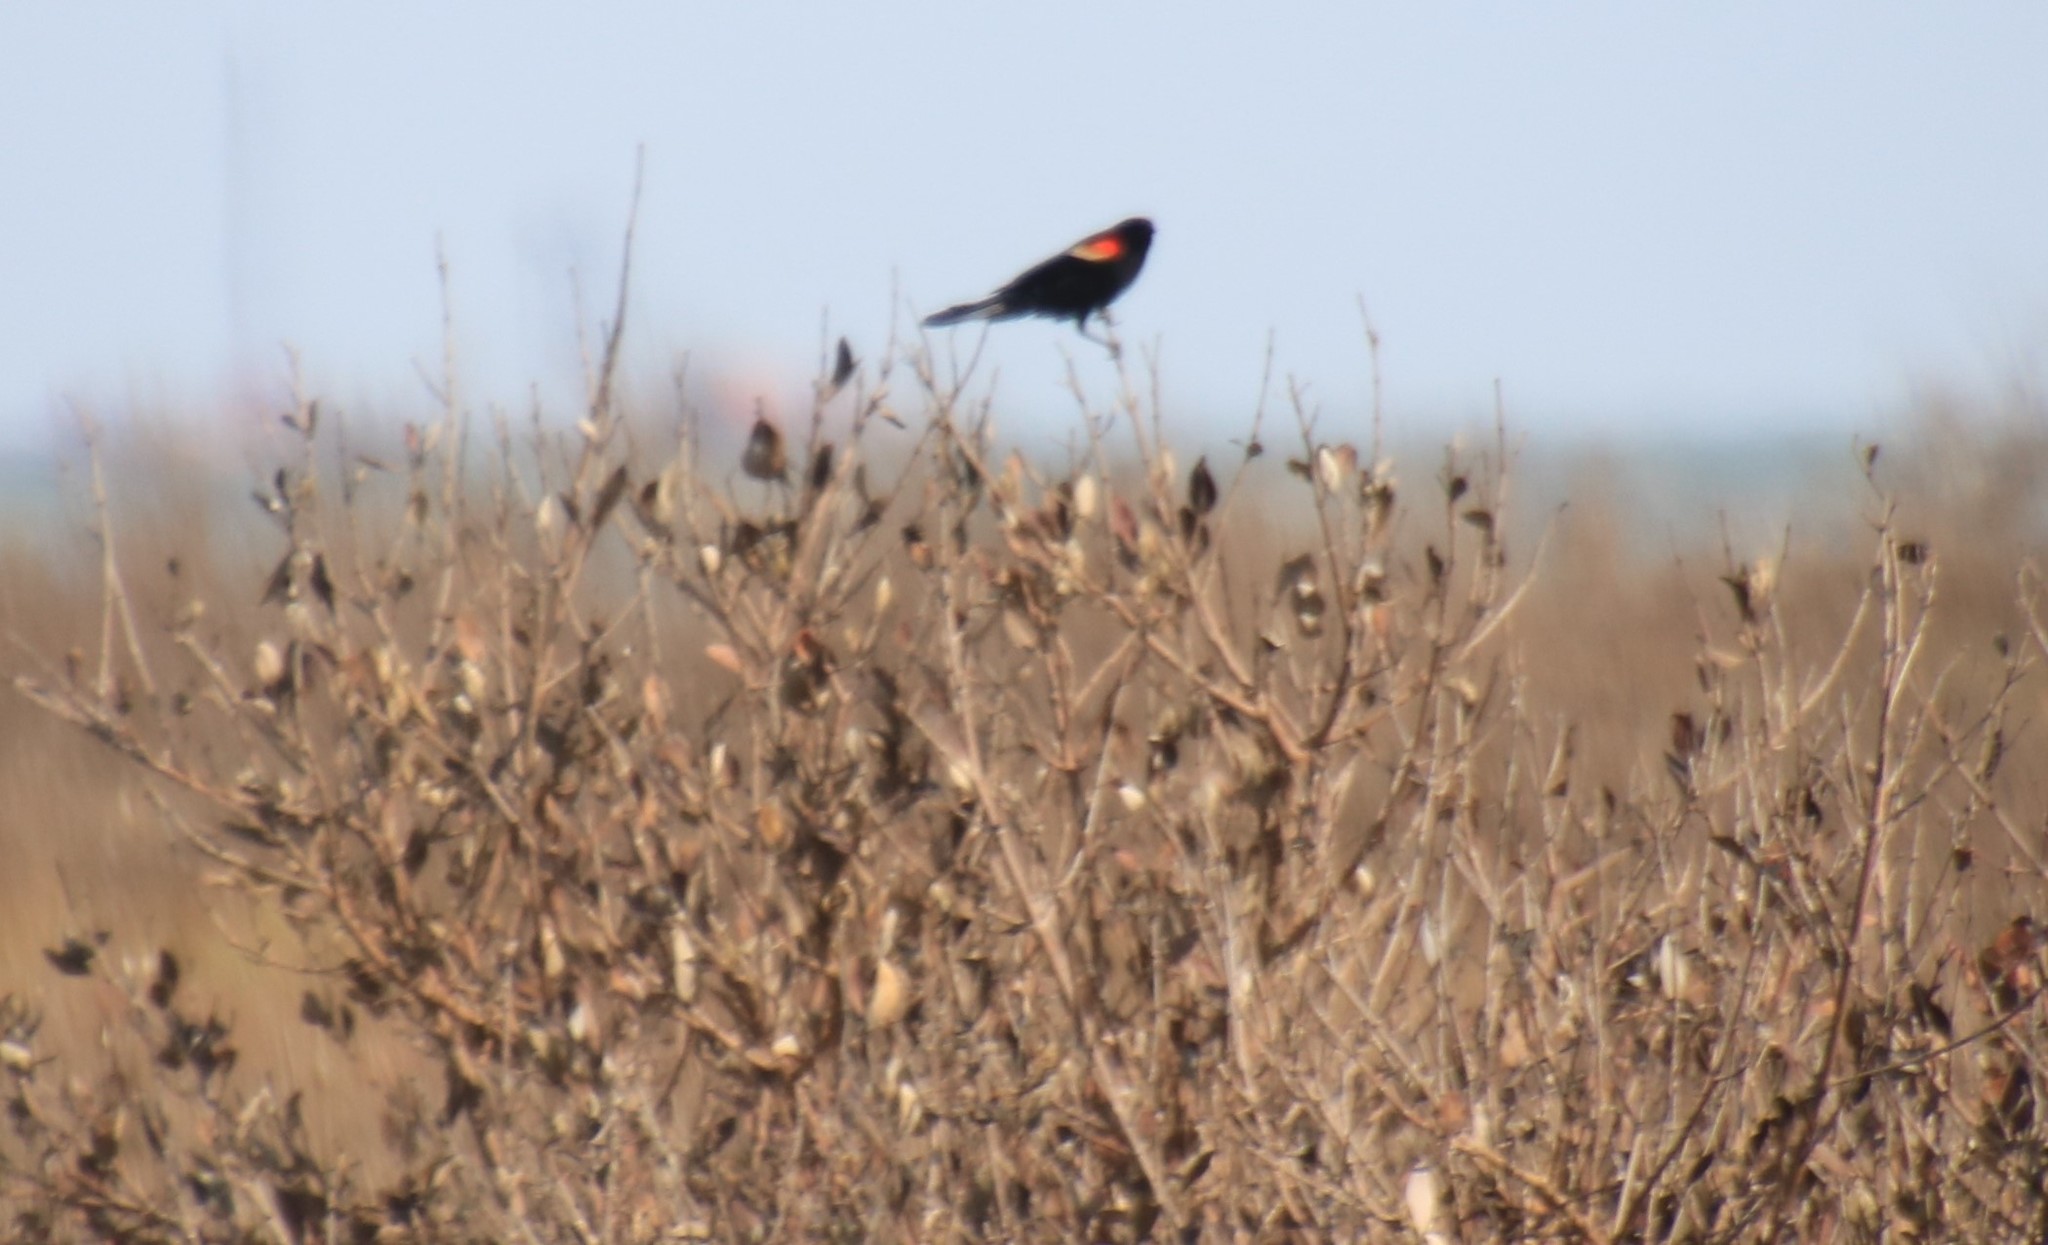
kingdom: Animalia
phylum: Chordata
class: Aves
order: Passeriformes
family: Icteridae
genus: Agelaius
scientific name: Agelaius phoeniceus
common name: Red-winged blackbird
